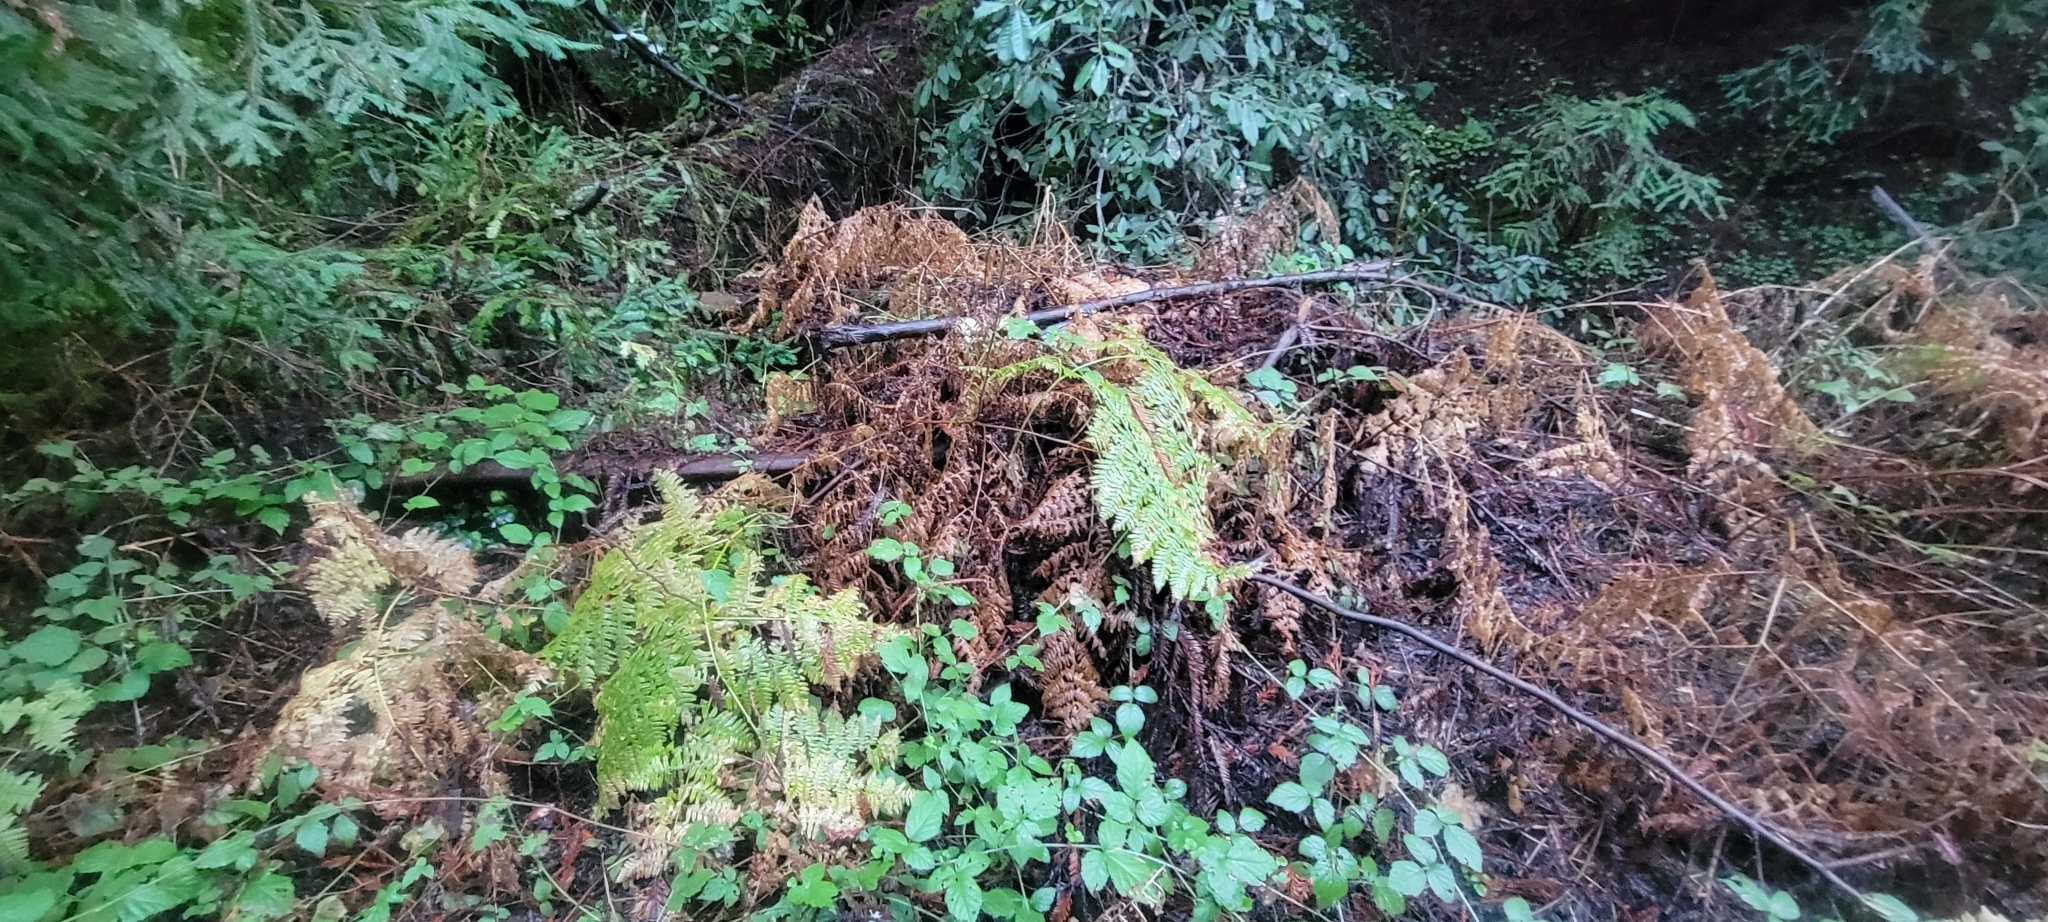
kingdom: Plantae
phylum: Tracheophyta
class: Polypodiopsida
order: Polypodiales
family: Dennstaedtiaceae
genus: Pteridium
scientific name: Pteridium aquilinum
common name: Bracken
